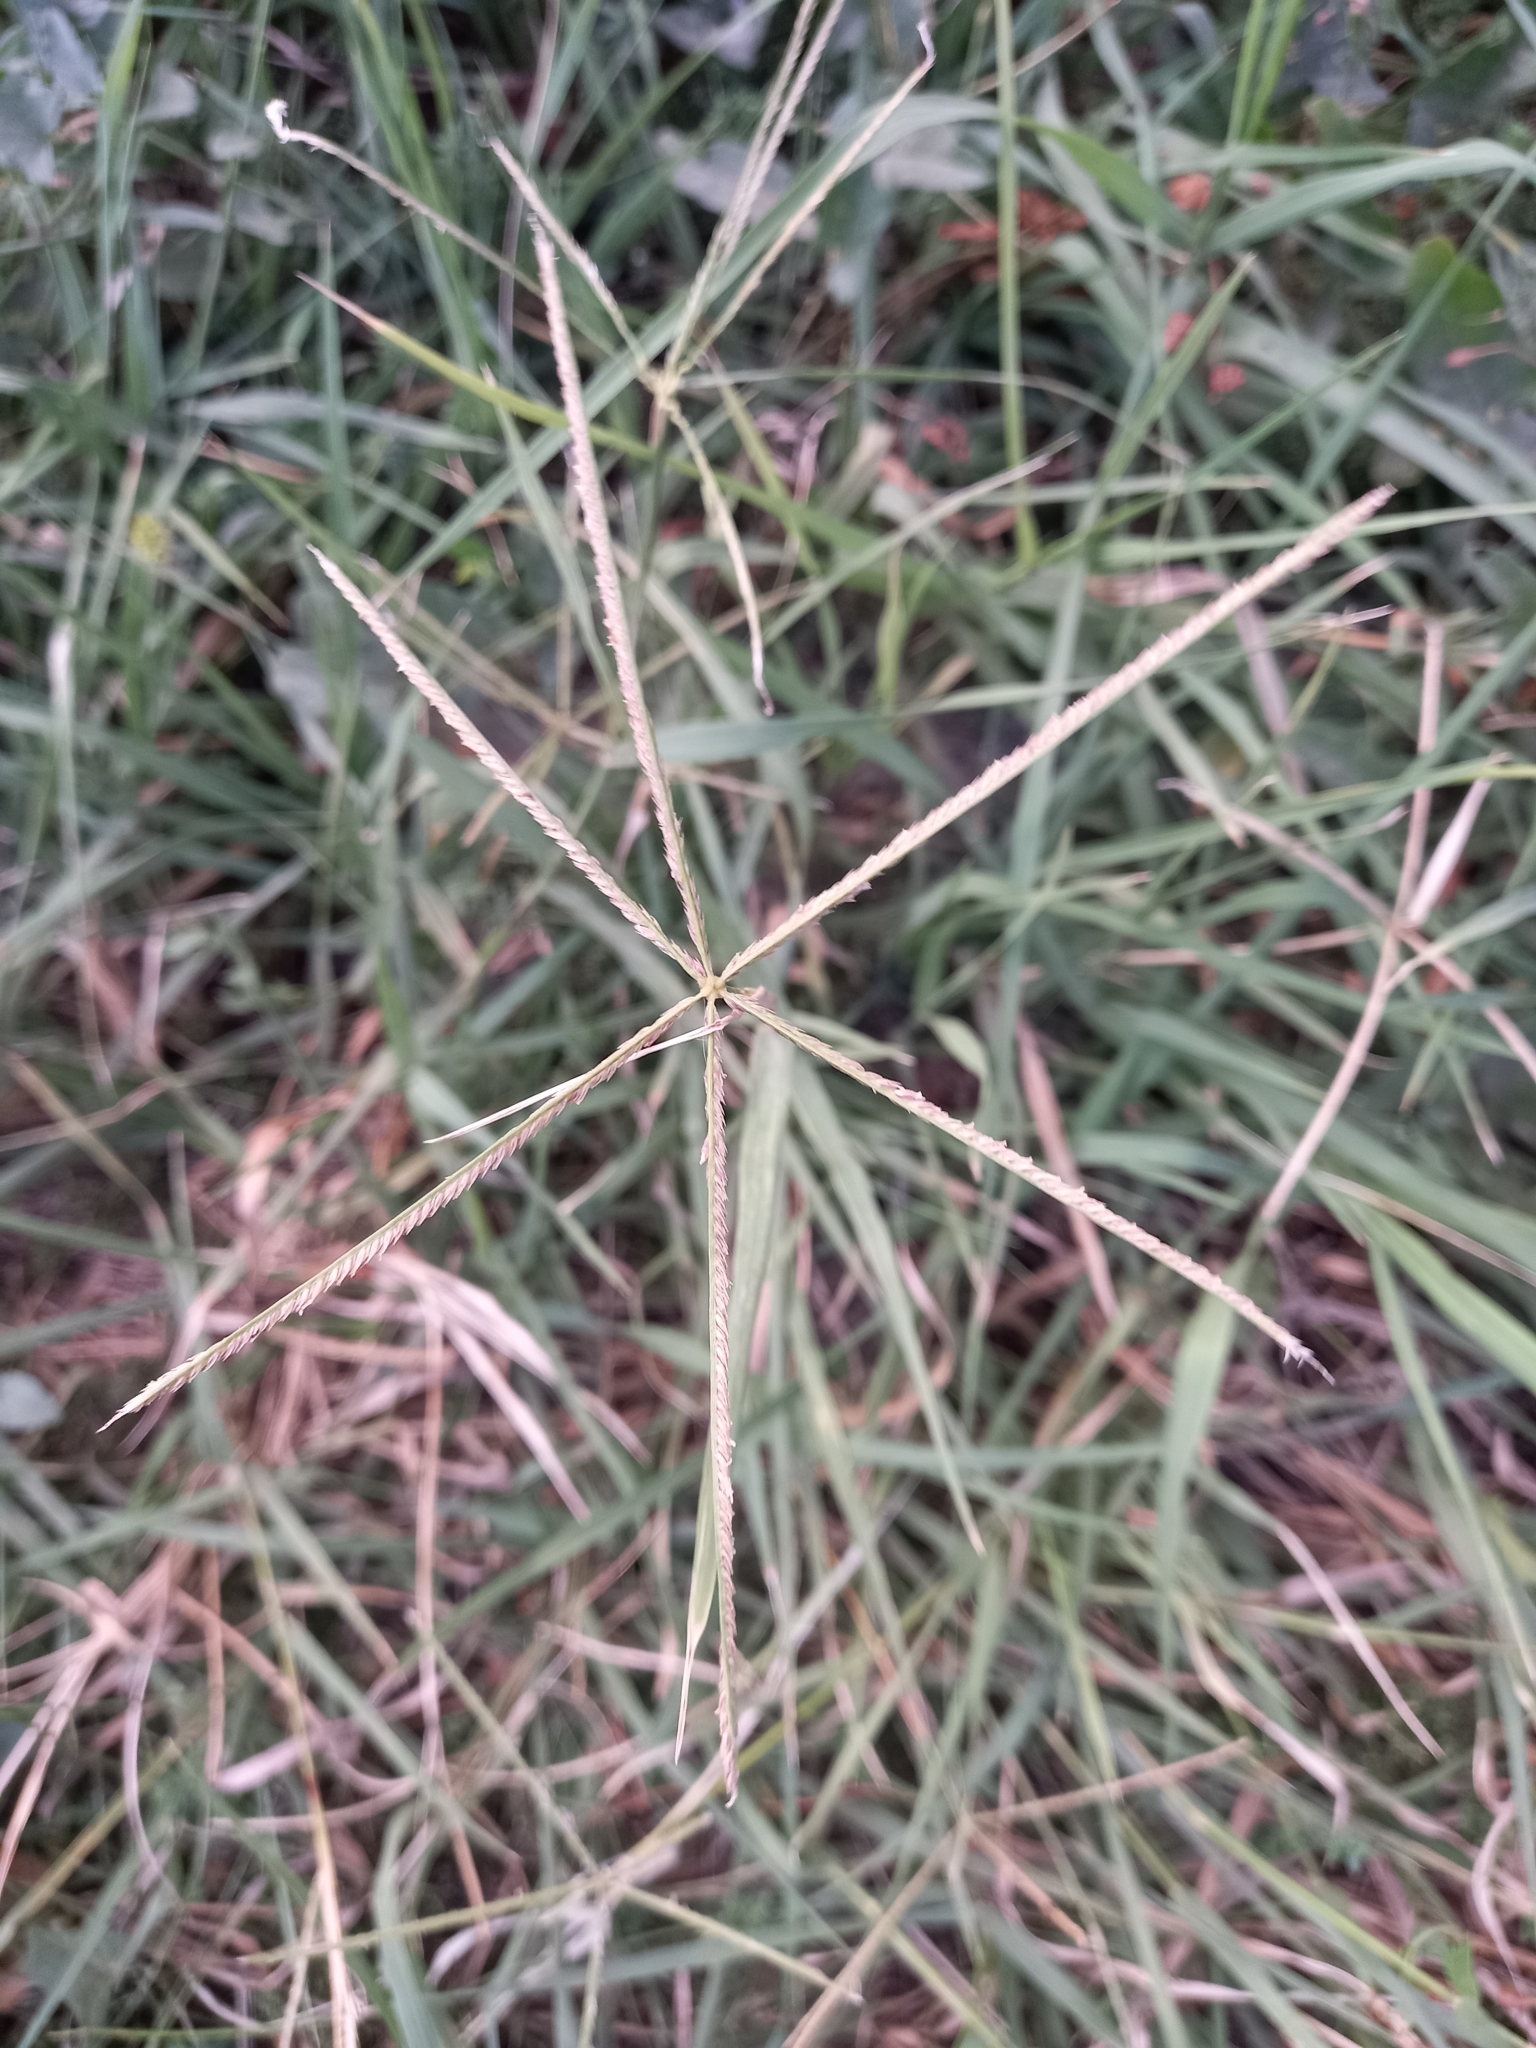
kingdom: Plantae
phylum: Tracheophyta
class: Liliopsida
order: Poales
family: Poaceae
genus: Cynodon
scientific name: Cynodon dactylon
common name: Bermuda grass
